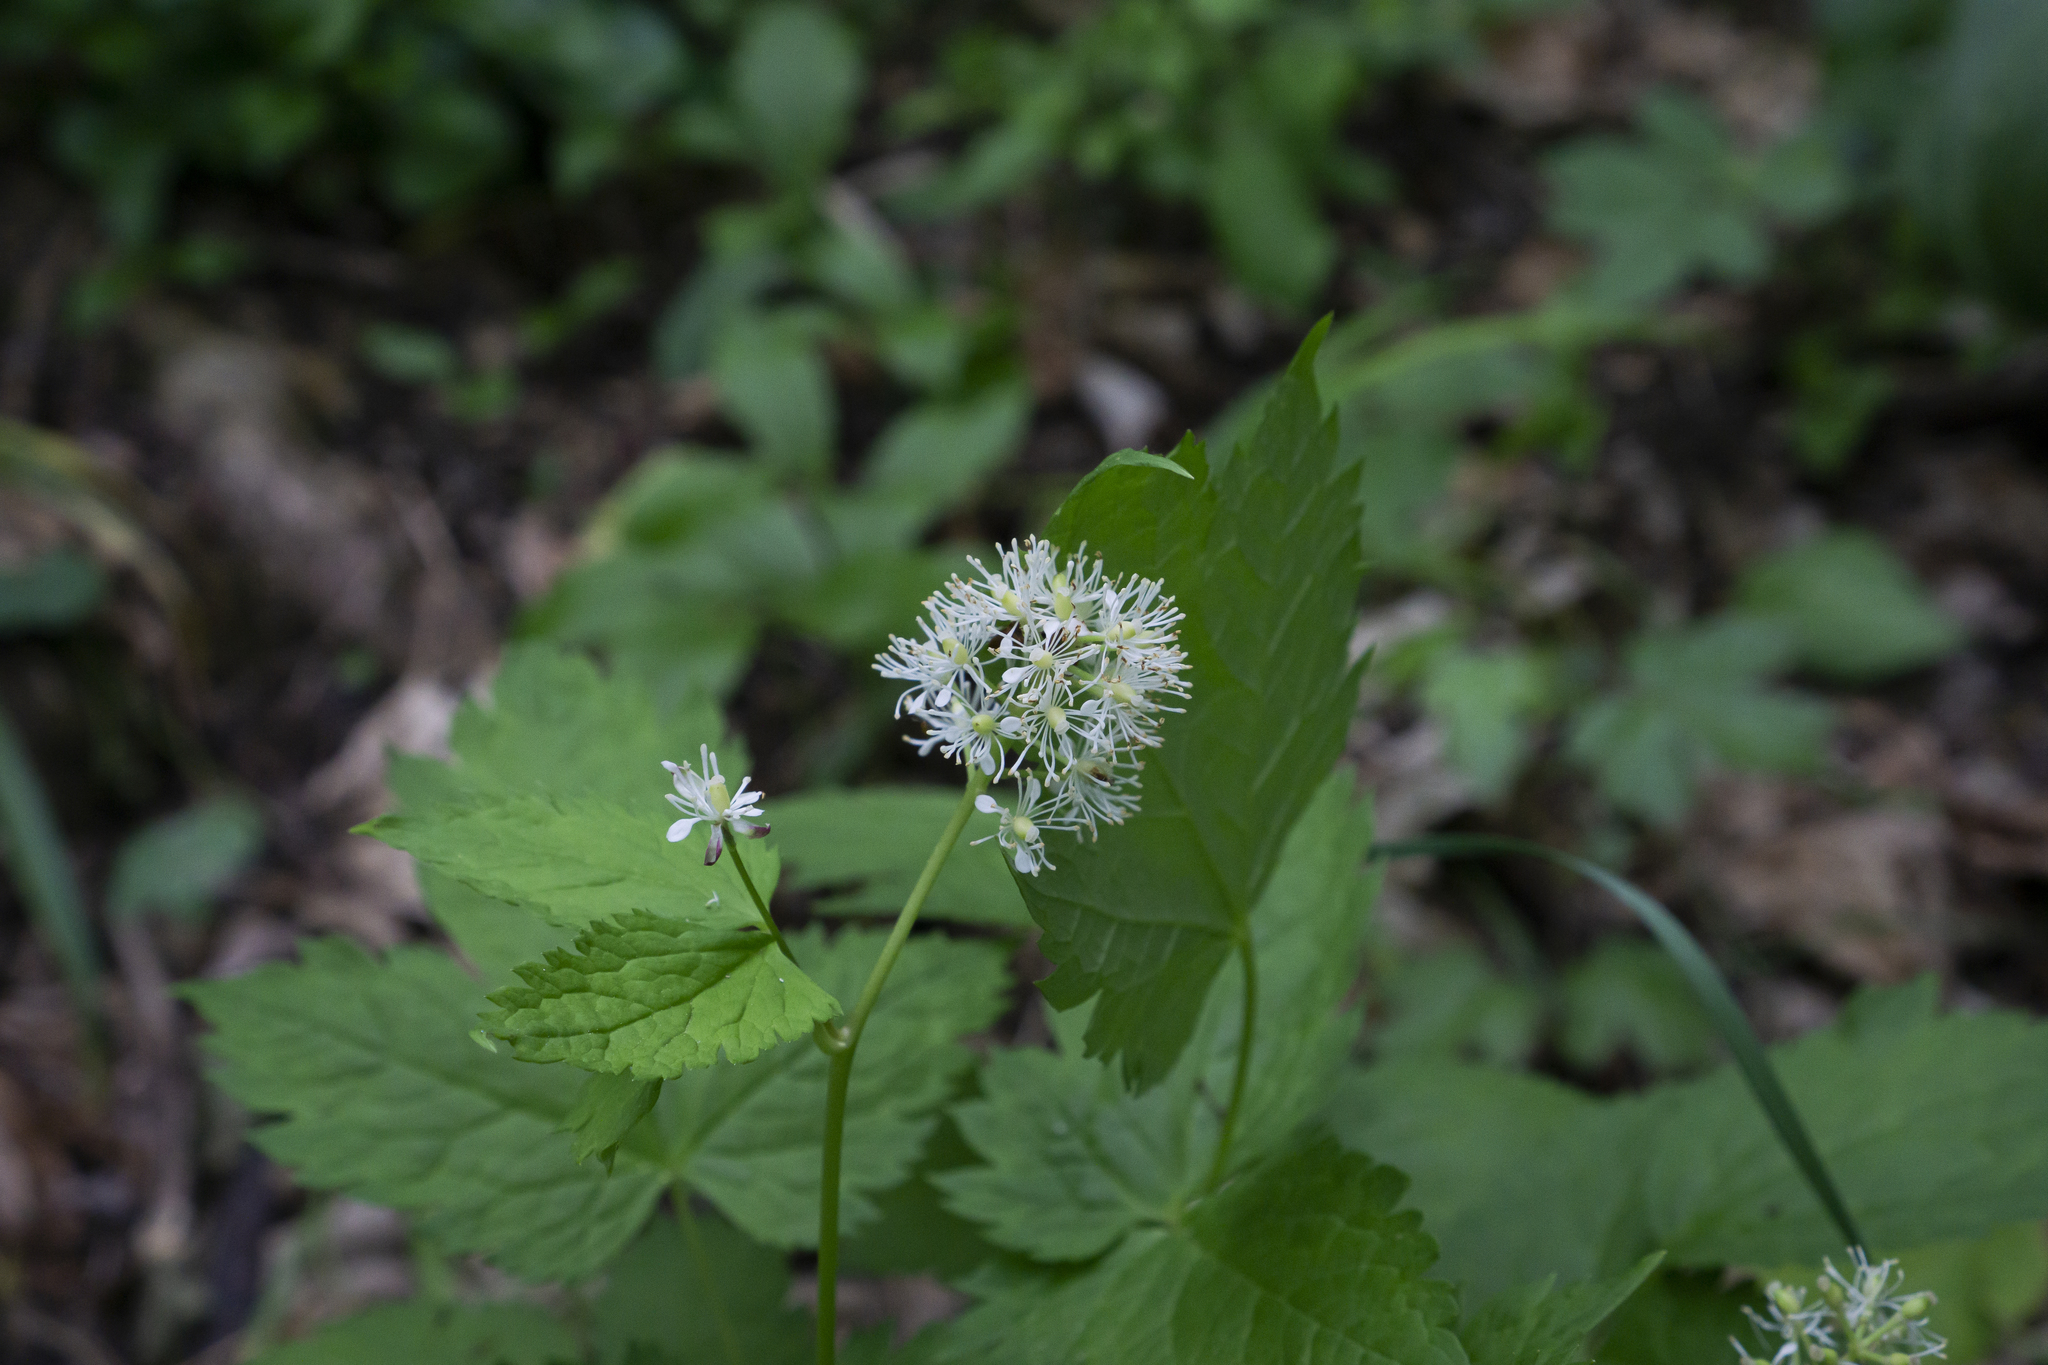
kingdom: Plantae
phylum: Tracheophyta
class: Magnoliopsida
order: Ranunculales
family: Ranunculaceae
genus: Actaea
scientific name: Actaea spicata
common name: Baneberry
